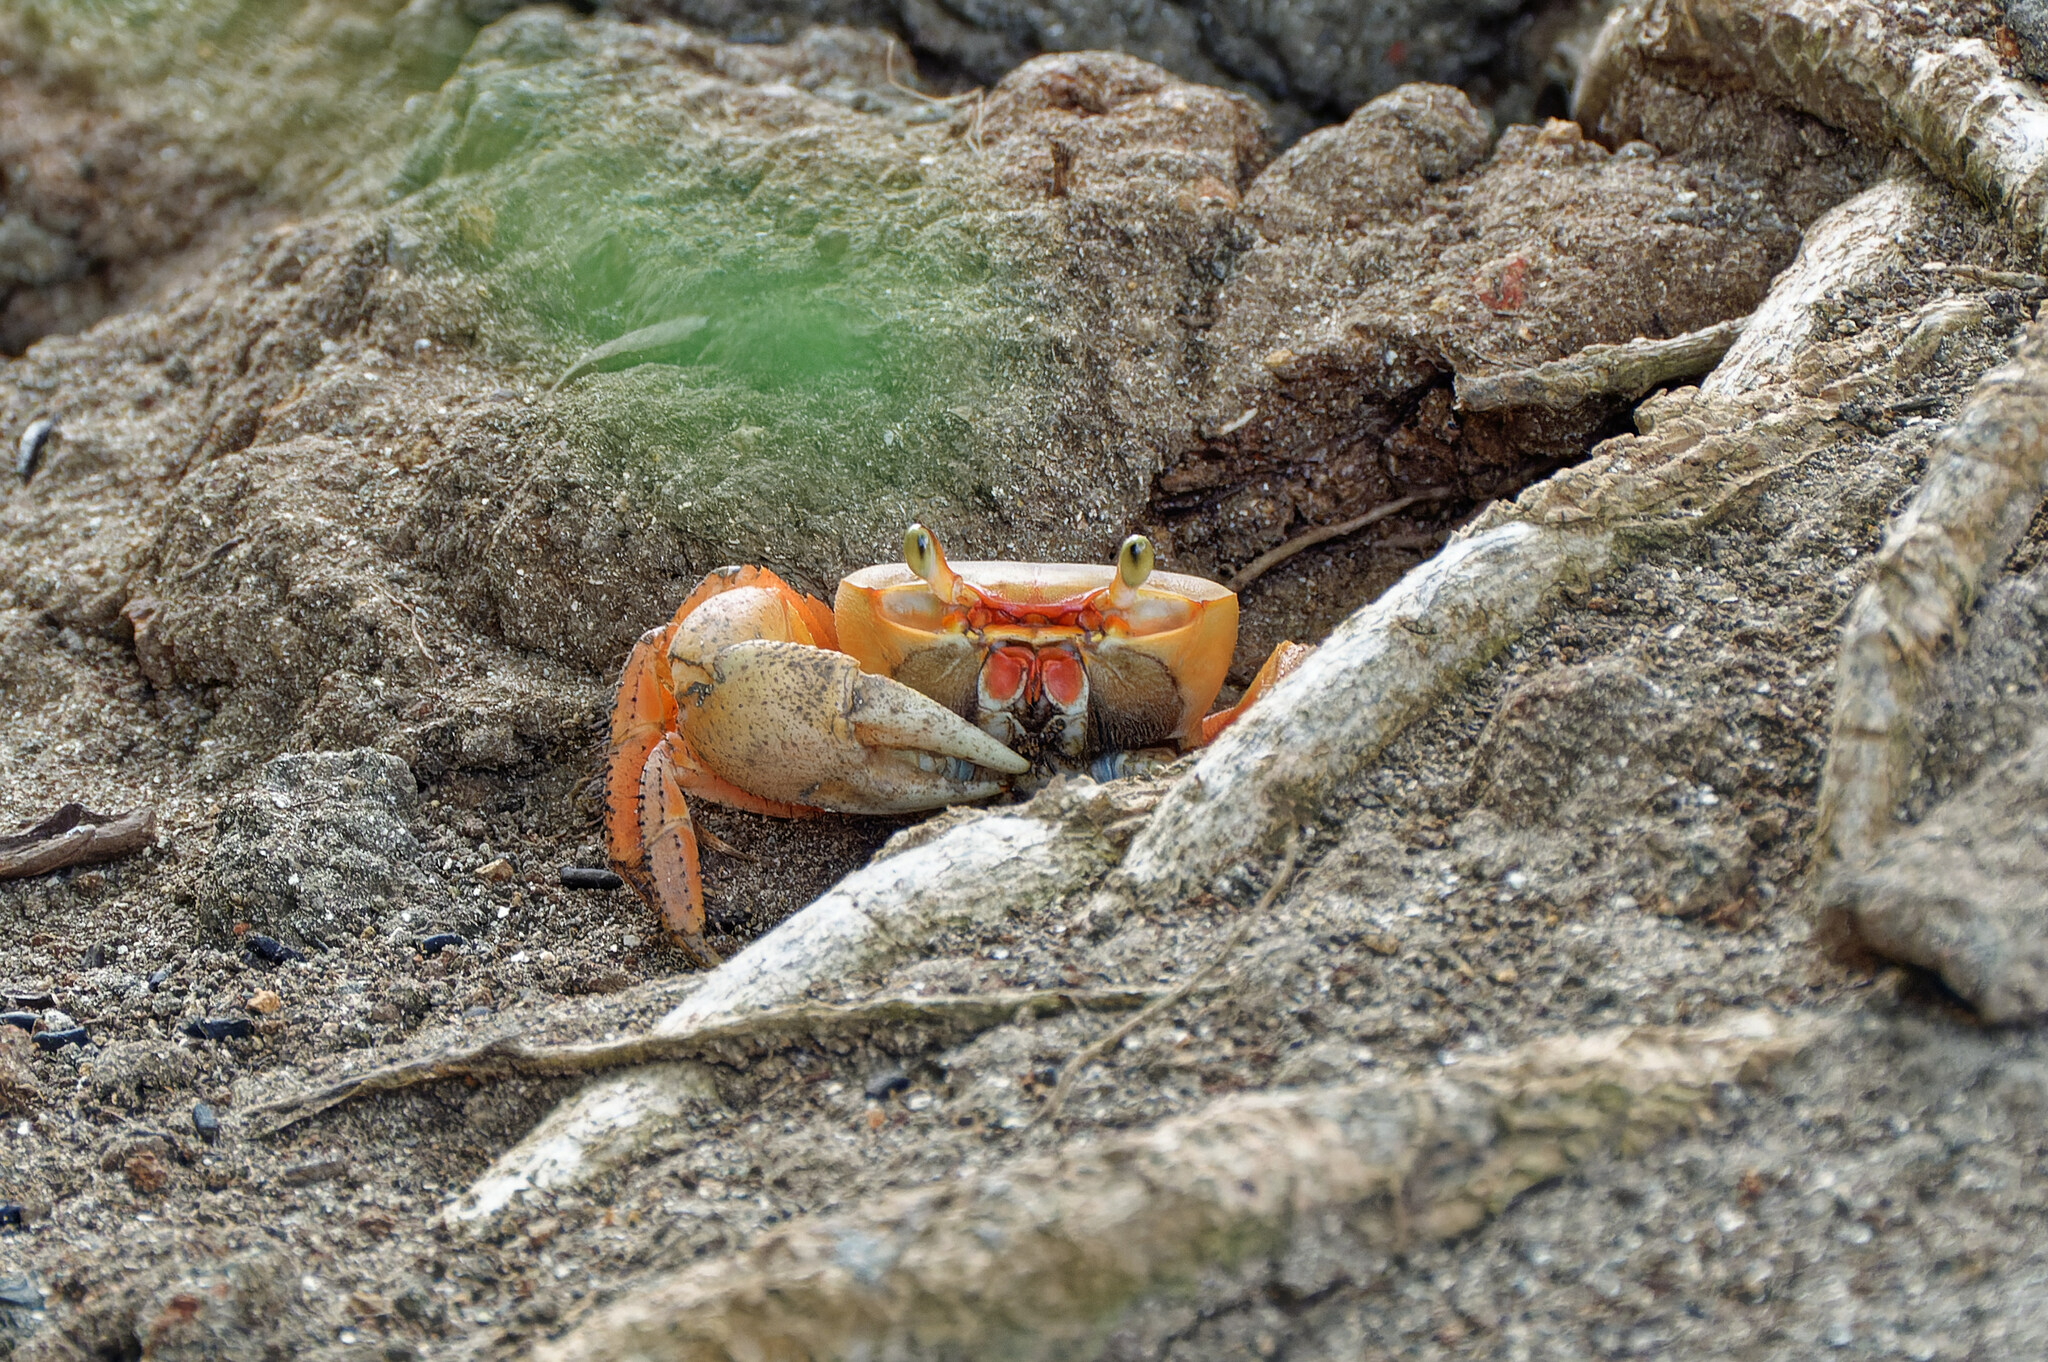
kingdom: Animalia
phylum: Arthropoda
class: Malacostraca
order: Decapoda
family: Gecarcinidae
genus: Cardisoma
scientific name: Cardisoma guanhumi
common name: Great land crab
